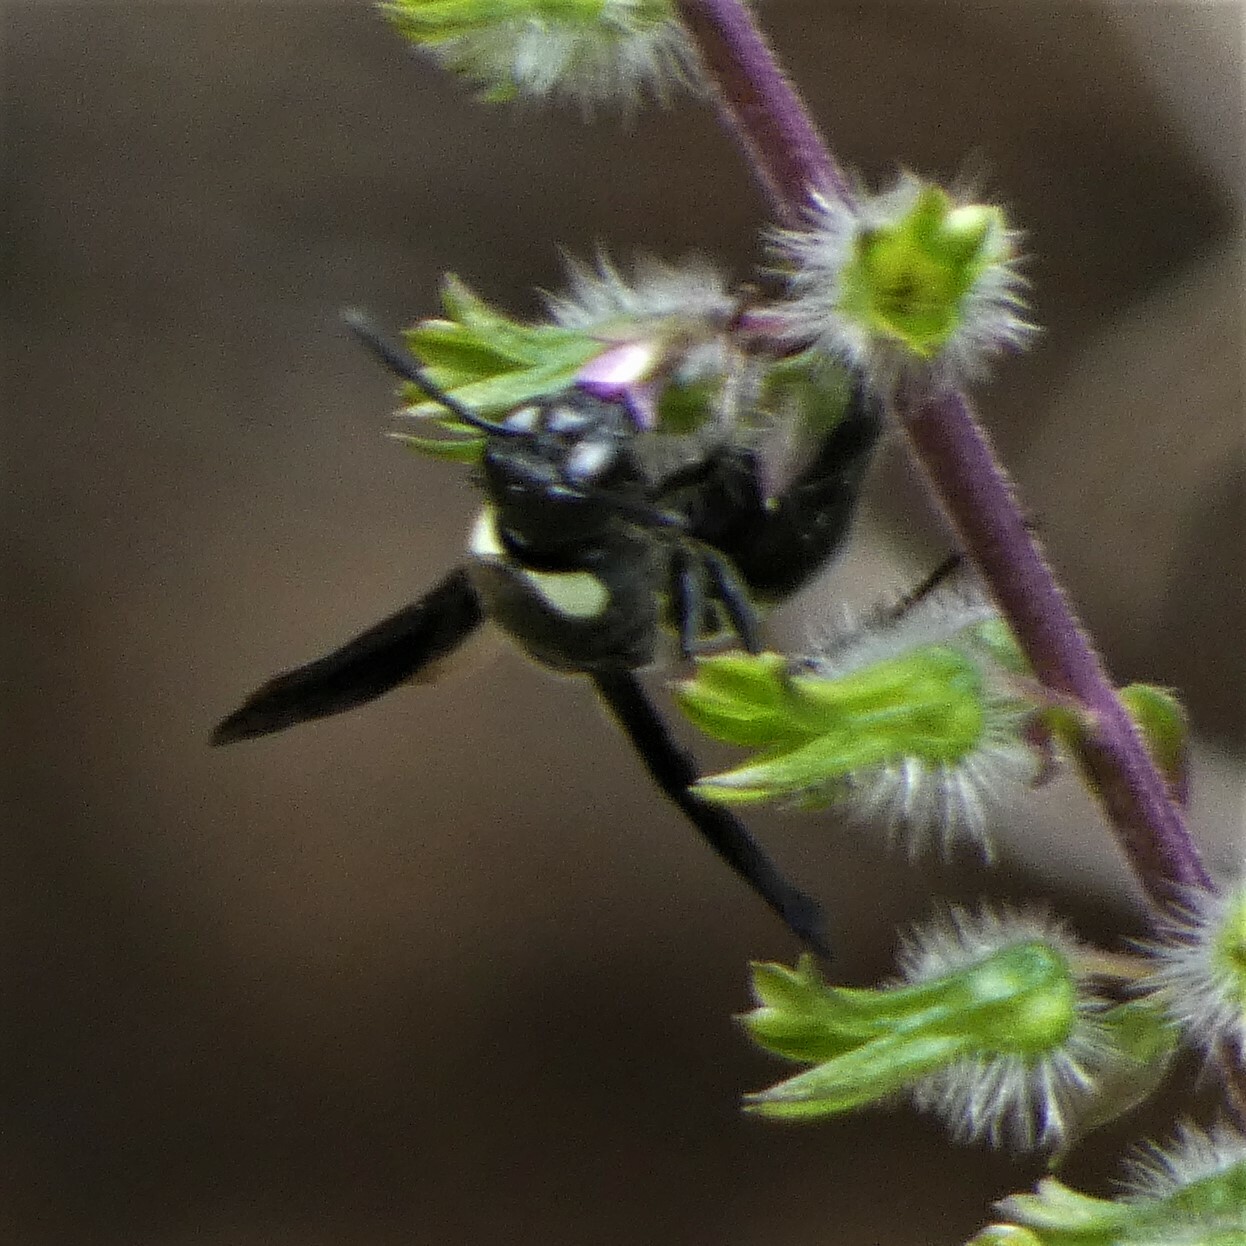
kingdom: Animalia
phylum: Arthropoda
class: Insecta
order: Hymenoptera
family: Eumenidae
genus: Monobia
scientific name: Monobia quadridens
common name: Four-toothed mason wasp
